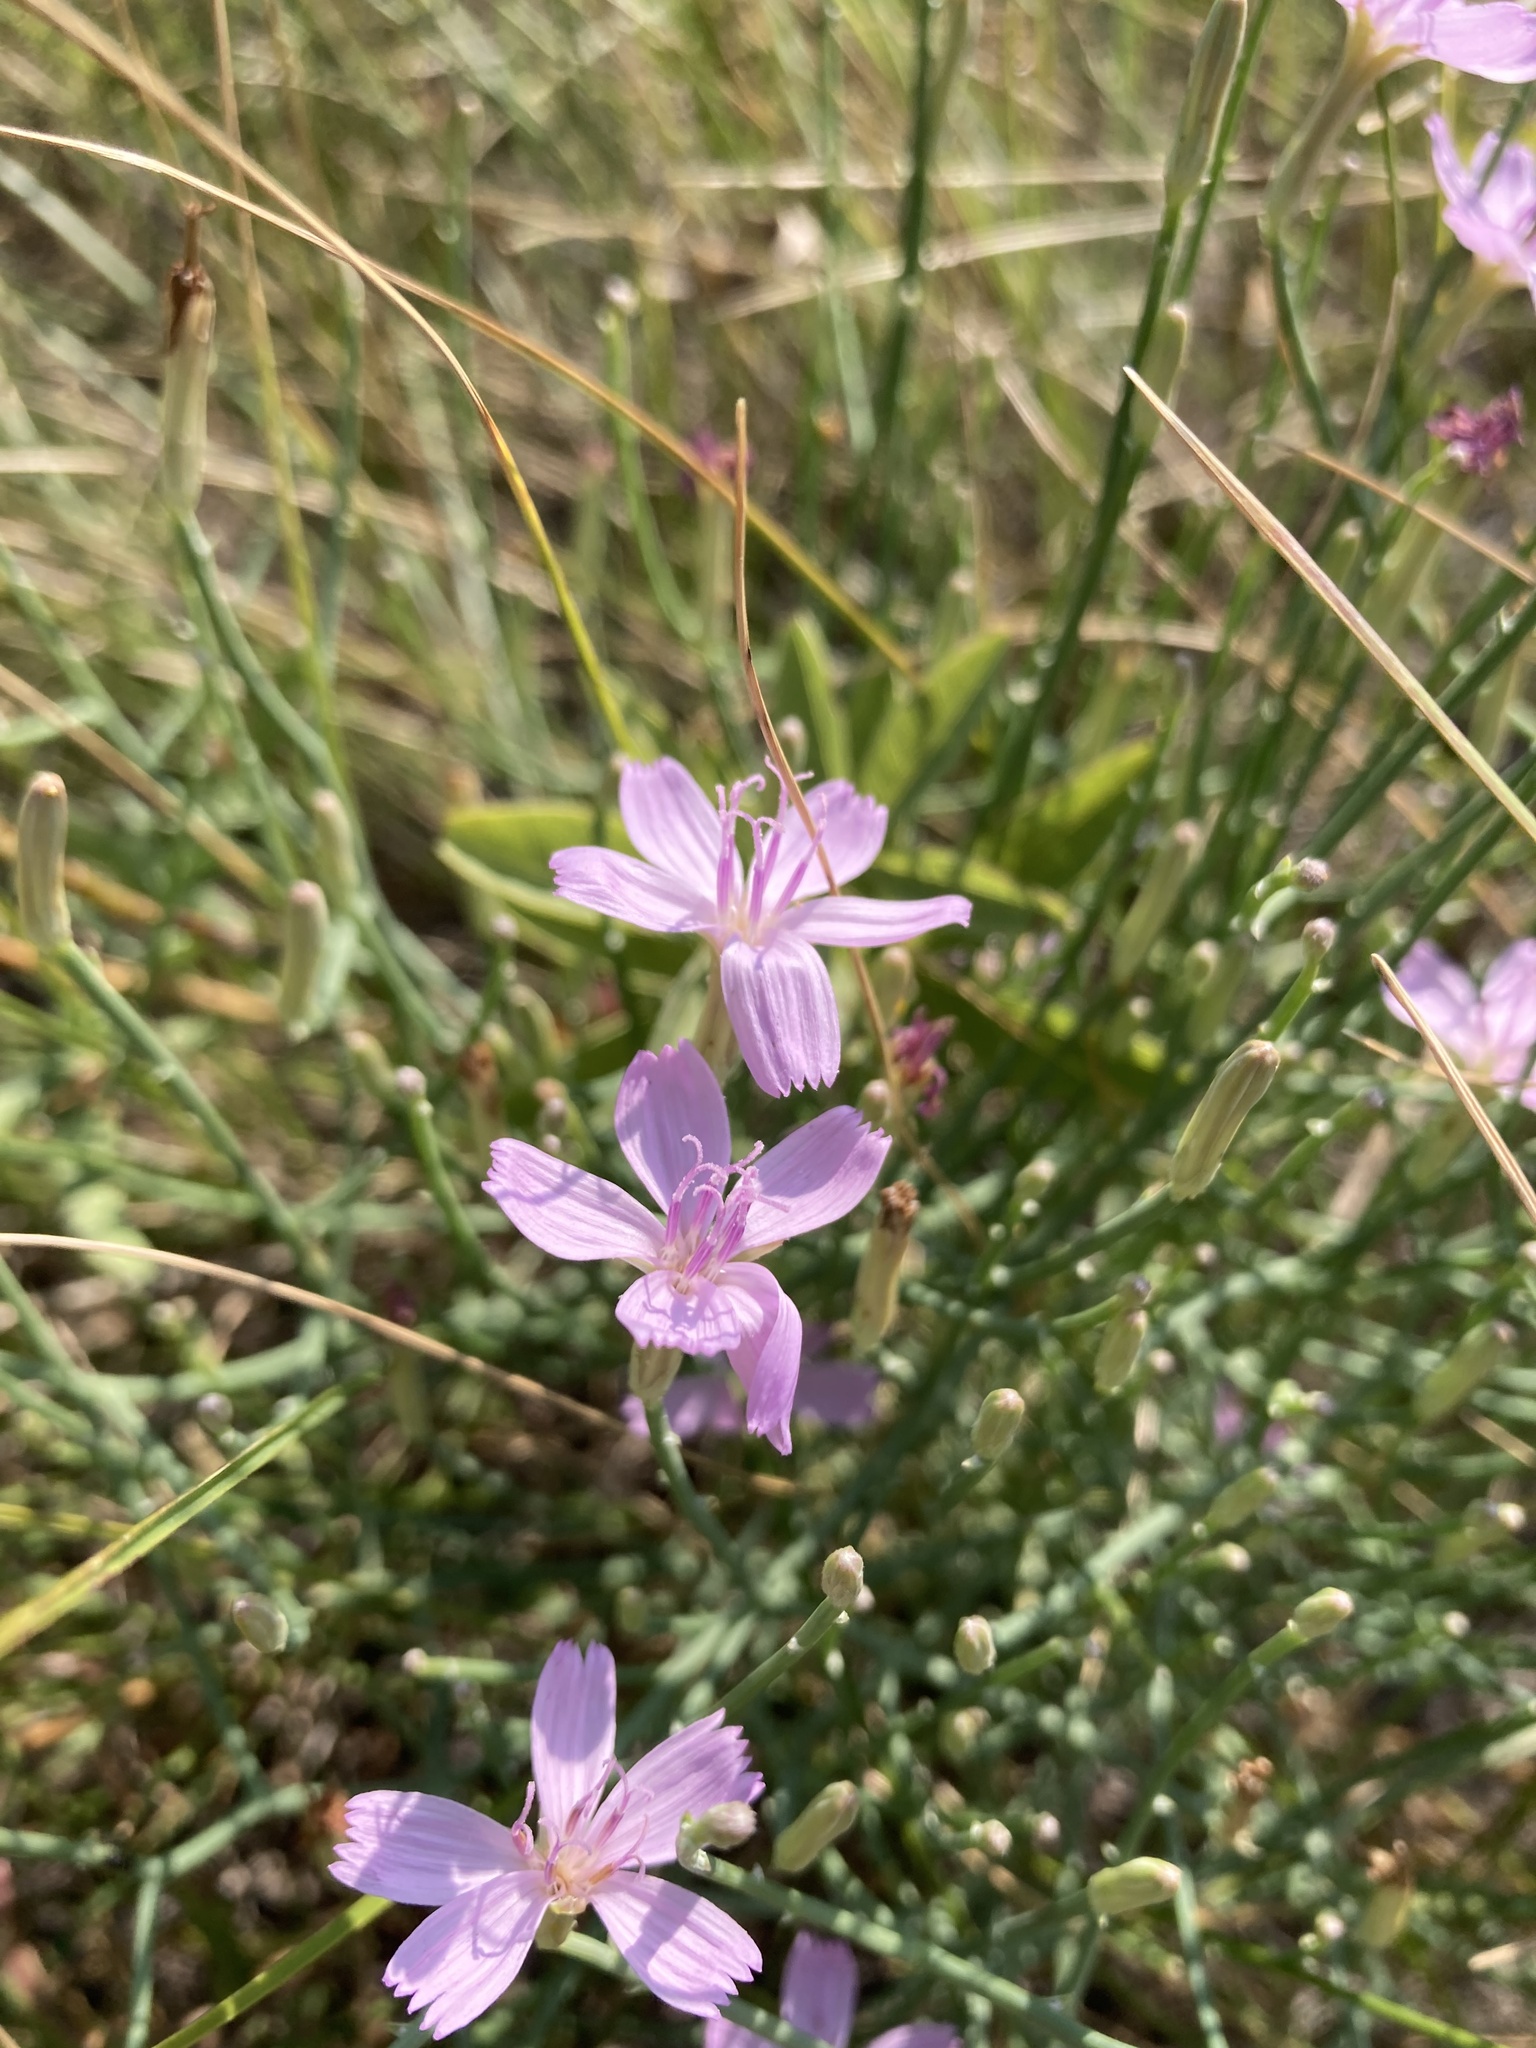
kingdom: Plantae
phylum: Tracheophyta
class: Magnoliopsida
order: Asterales
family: Asteraceae
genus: Lygodesmia
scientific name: Lygodesmia juncea
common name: Common skeletonweed
